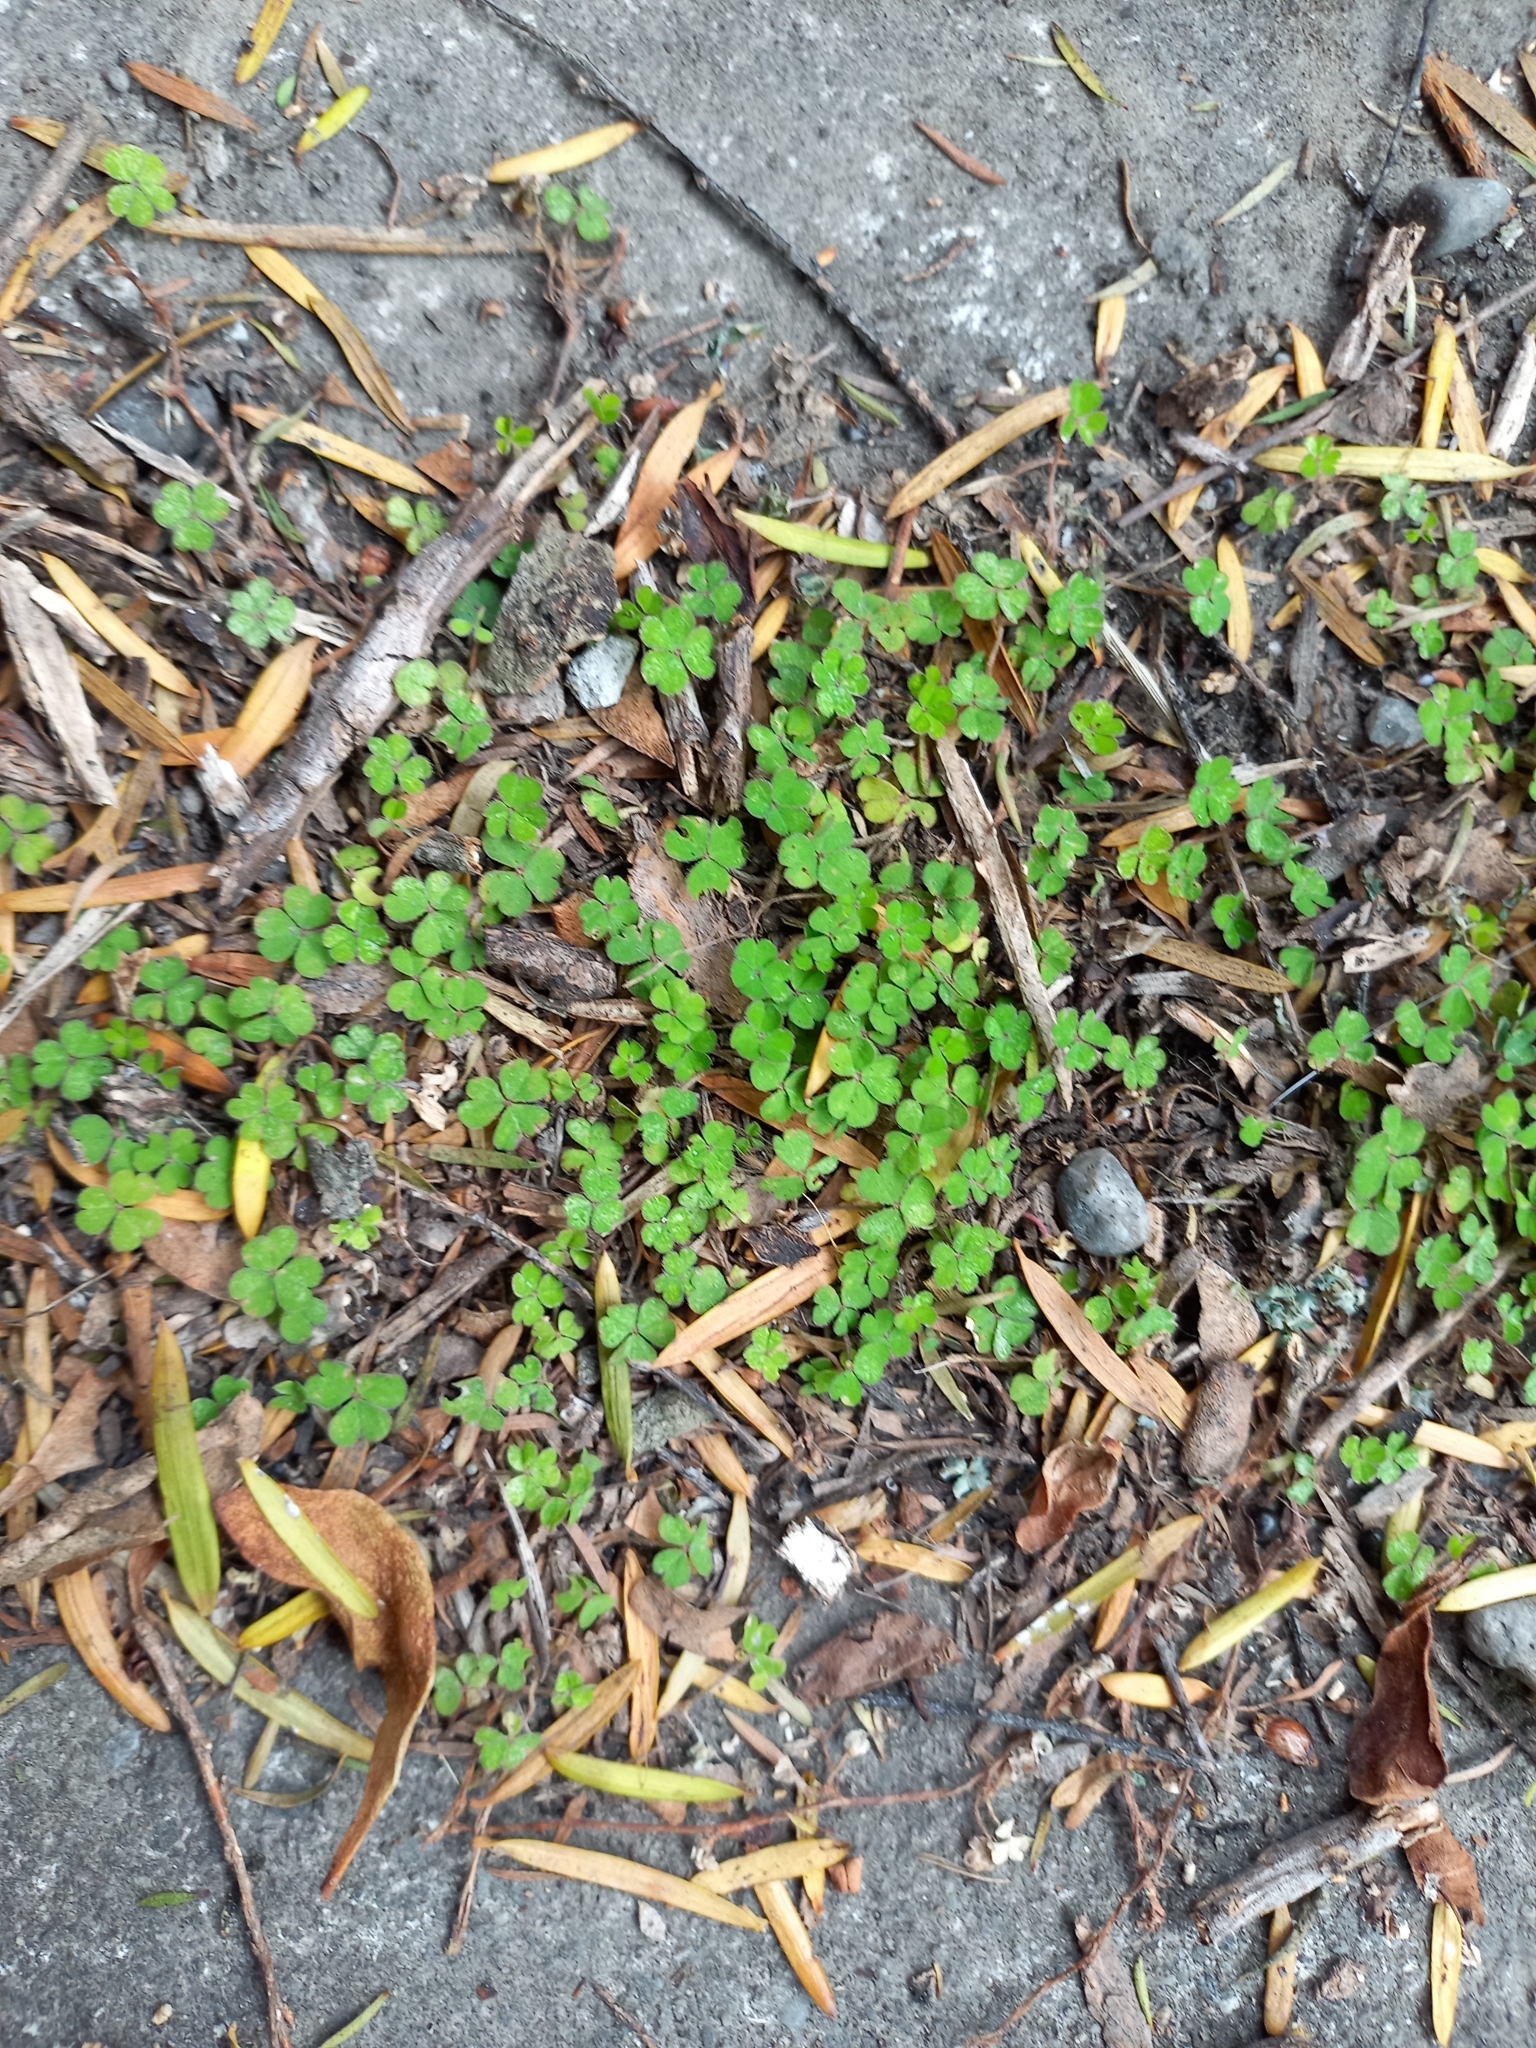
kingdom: Plantae
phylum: Tracheophyta
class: Magnoliopsida
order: Oxalidales
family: Oxalidaceae
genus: Oxalis
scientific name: Oxalis exilis
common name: Least yellow-sorrel
